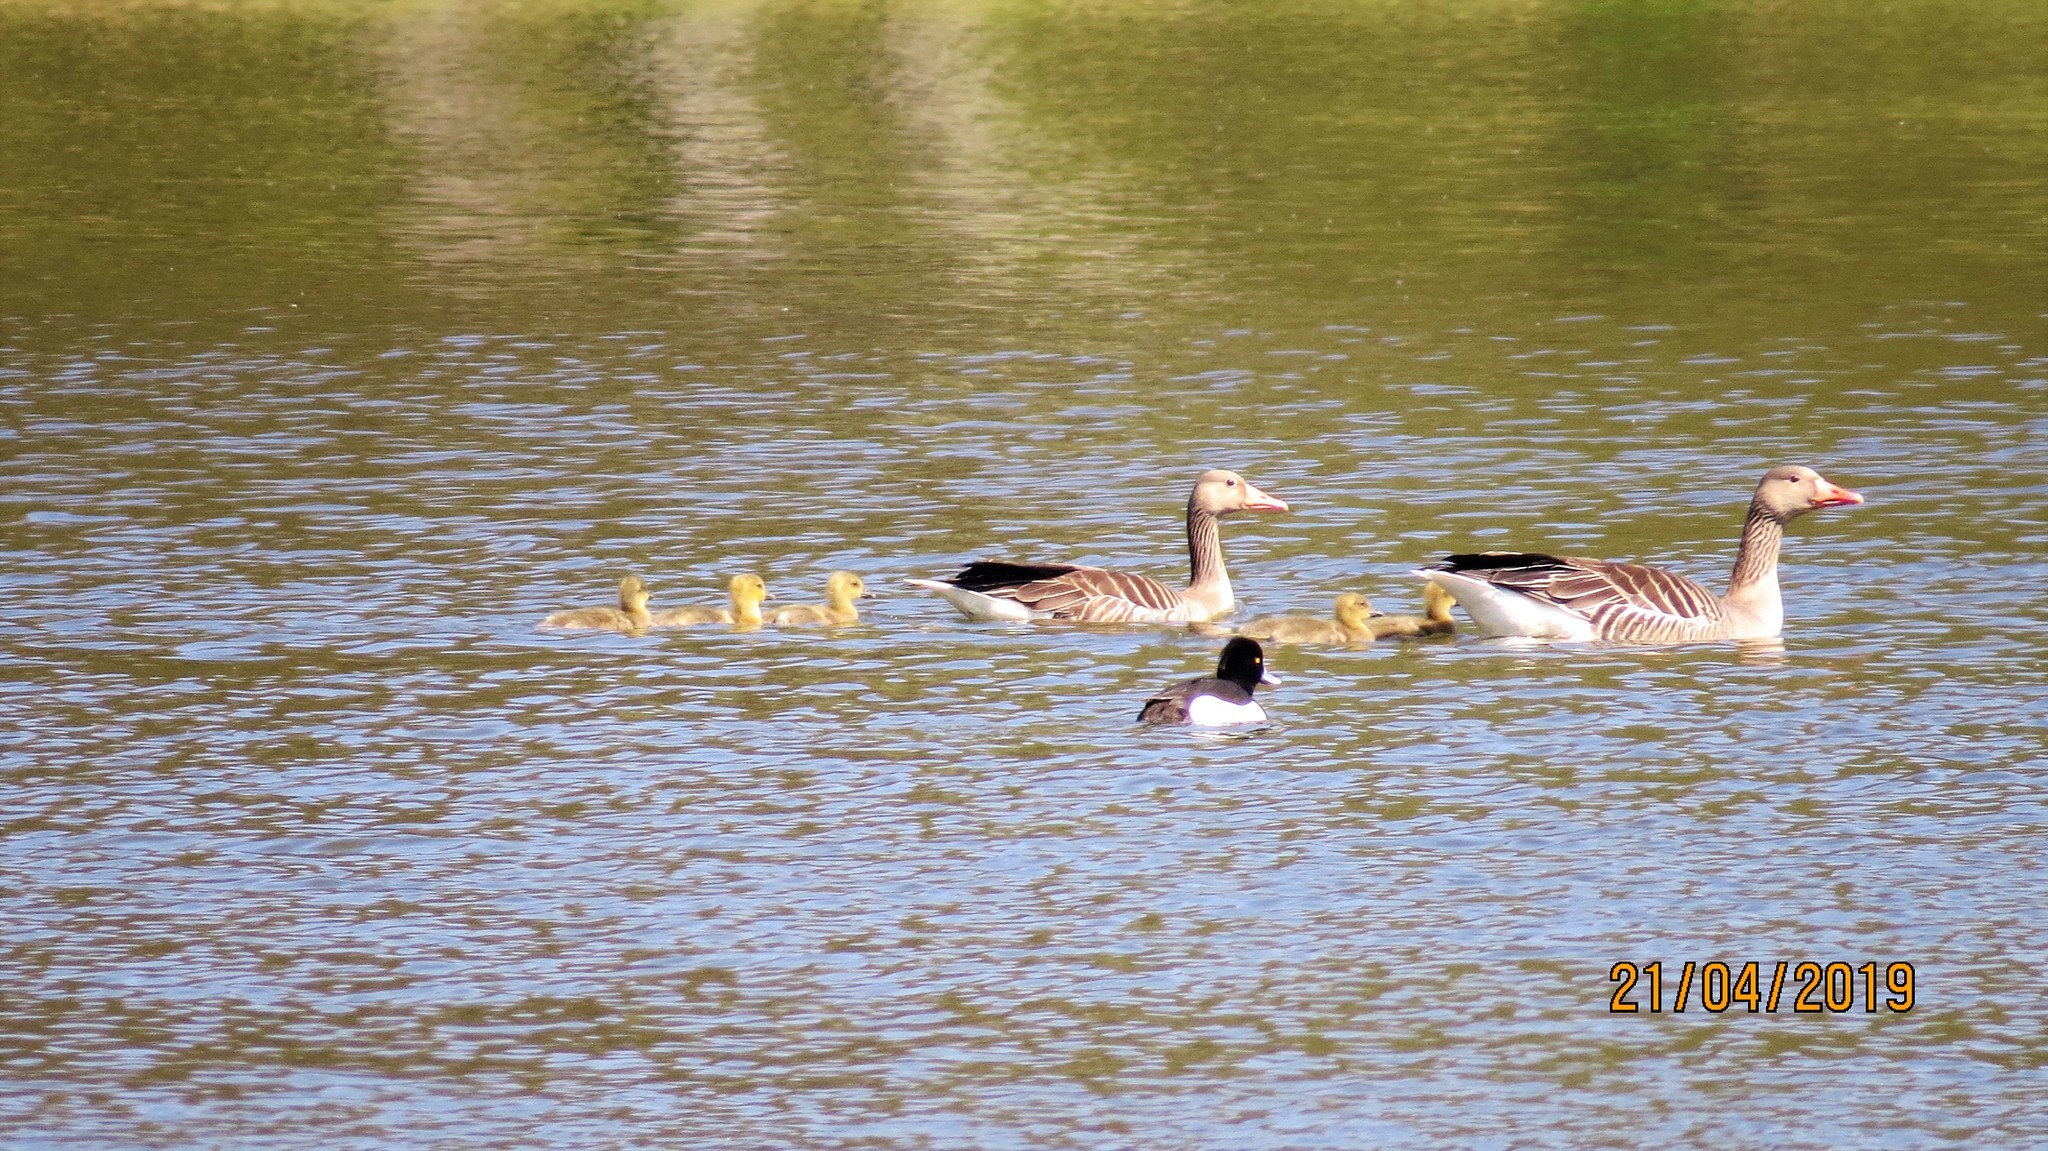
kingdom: Animalia
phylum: Chordata
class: Aves
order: Anseriformes
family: Anatidae
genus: Anser
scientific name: Anser anser
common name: Greylag goose
